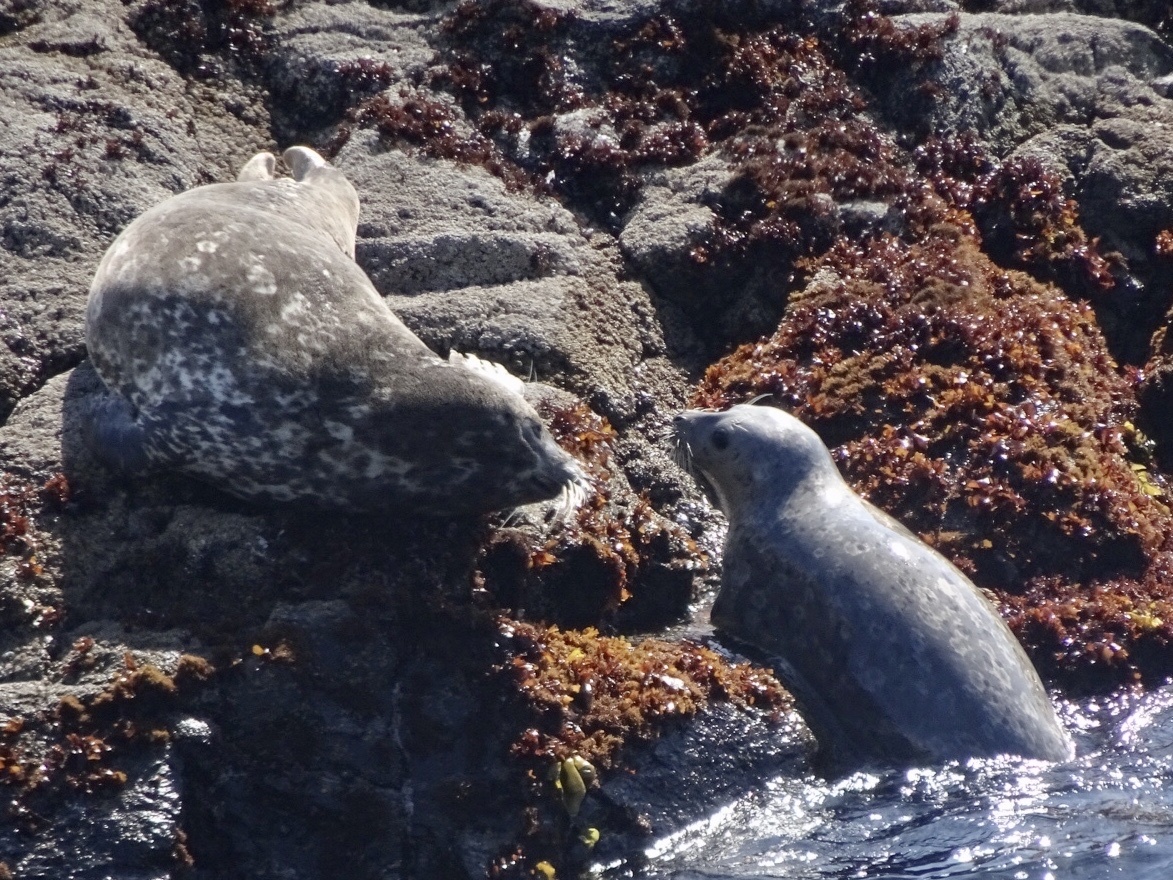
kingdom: Animalia
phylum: Chordata
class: Mammalia
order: Carnivora
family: Phocidae
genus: Phoca
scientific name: Phoca vitulina
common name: Harbor seal
